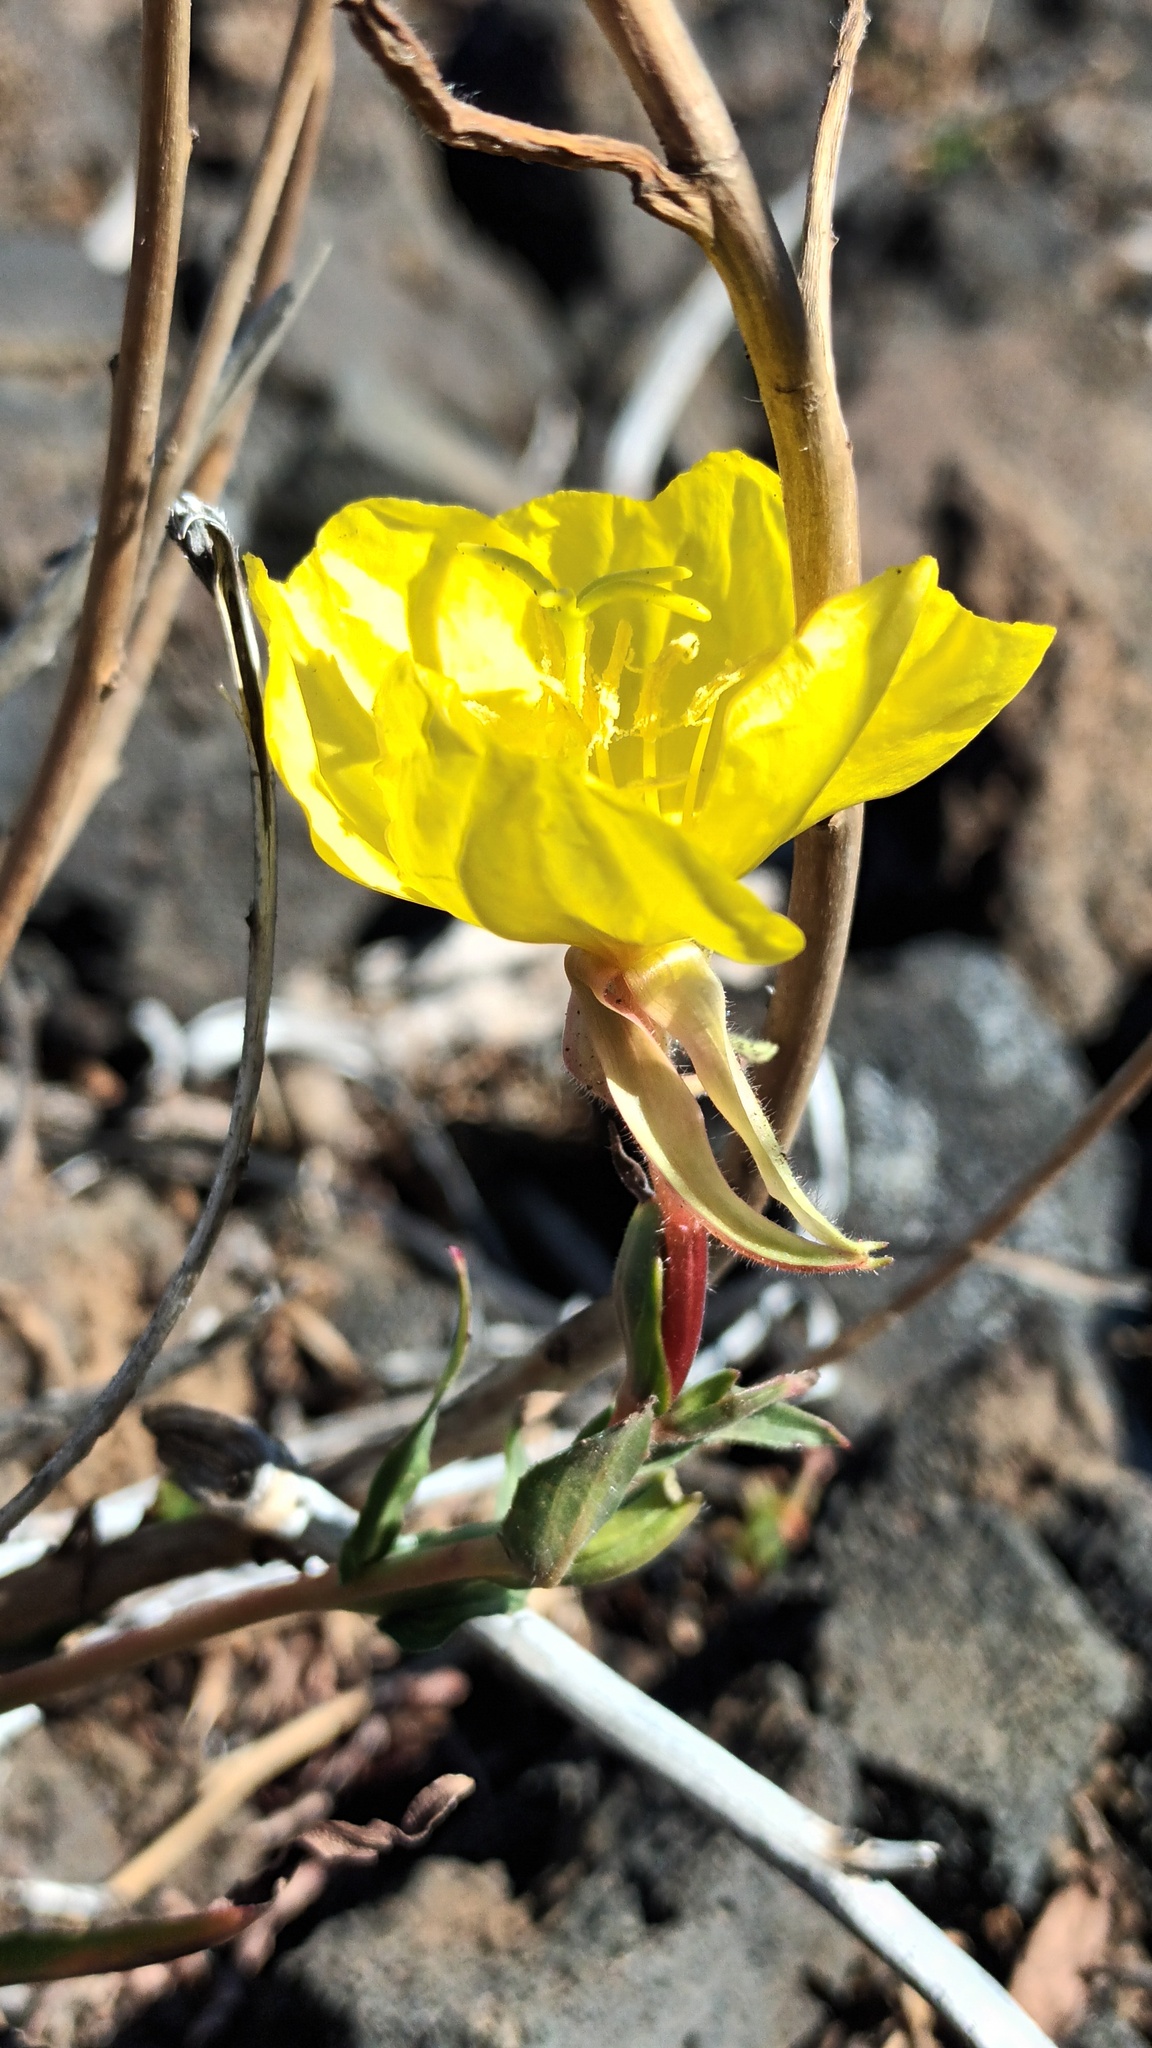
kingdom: Plantae
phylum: Tracheophyta
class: Magnoliopsida
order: Myrtales
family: Onagraceae
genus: Oenothera
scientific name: Oenothera stricta
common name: Fragrant evening-primrose
